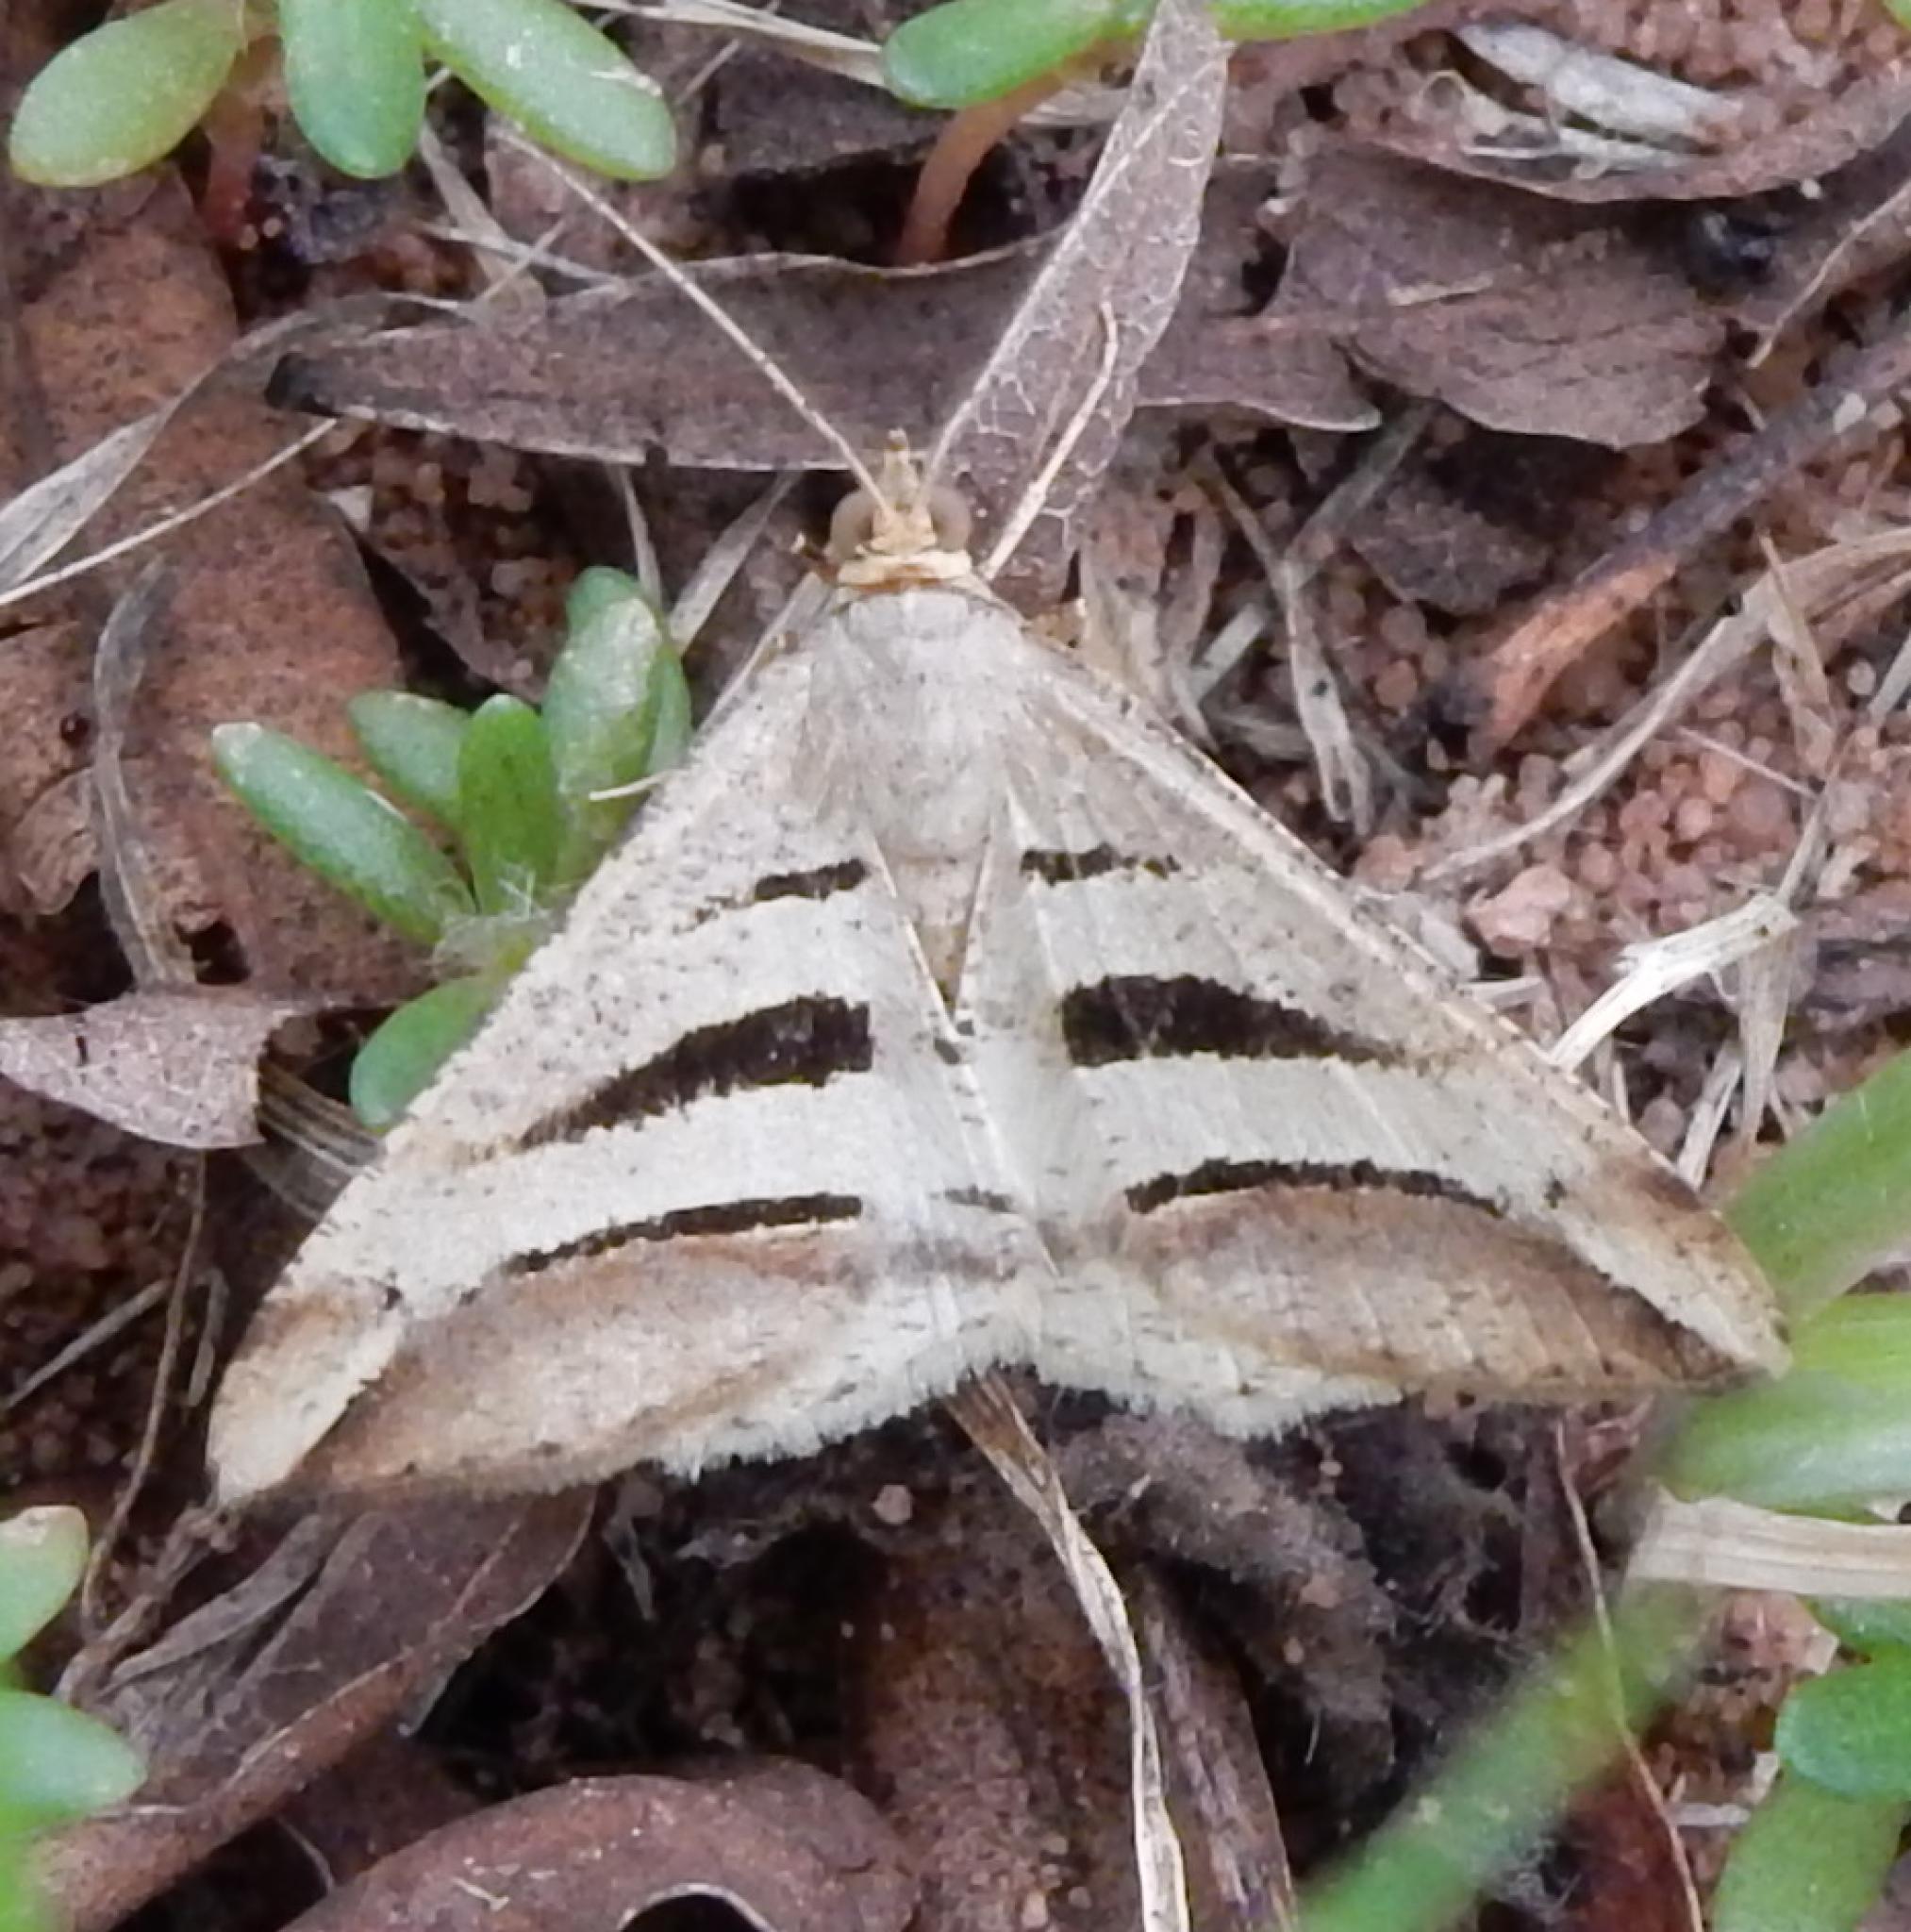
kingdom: Animalia
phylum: Arthropoda
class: Insecta
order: Lepidoptera
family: Geometridae
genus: Chiasmia
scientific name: Chiasmia subcurvaria
